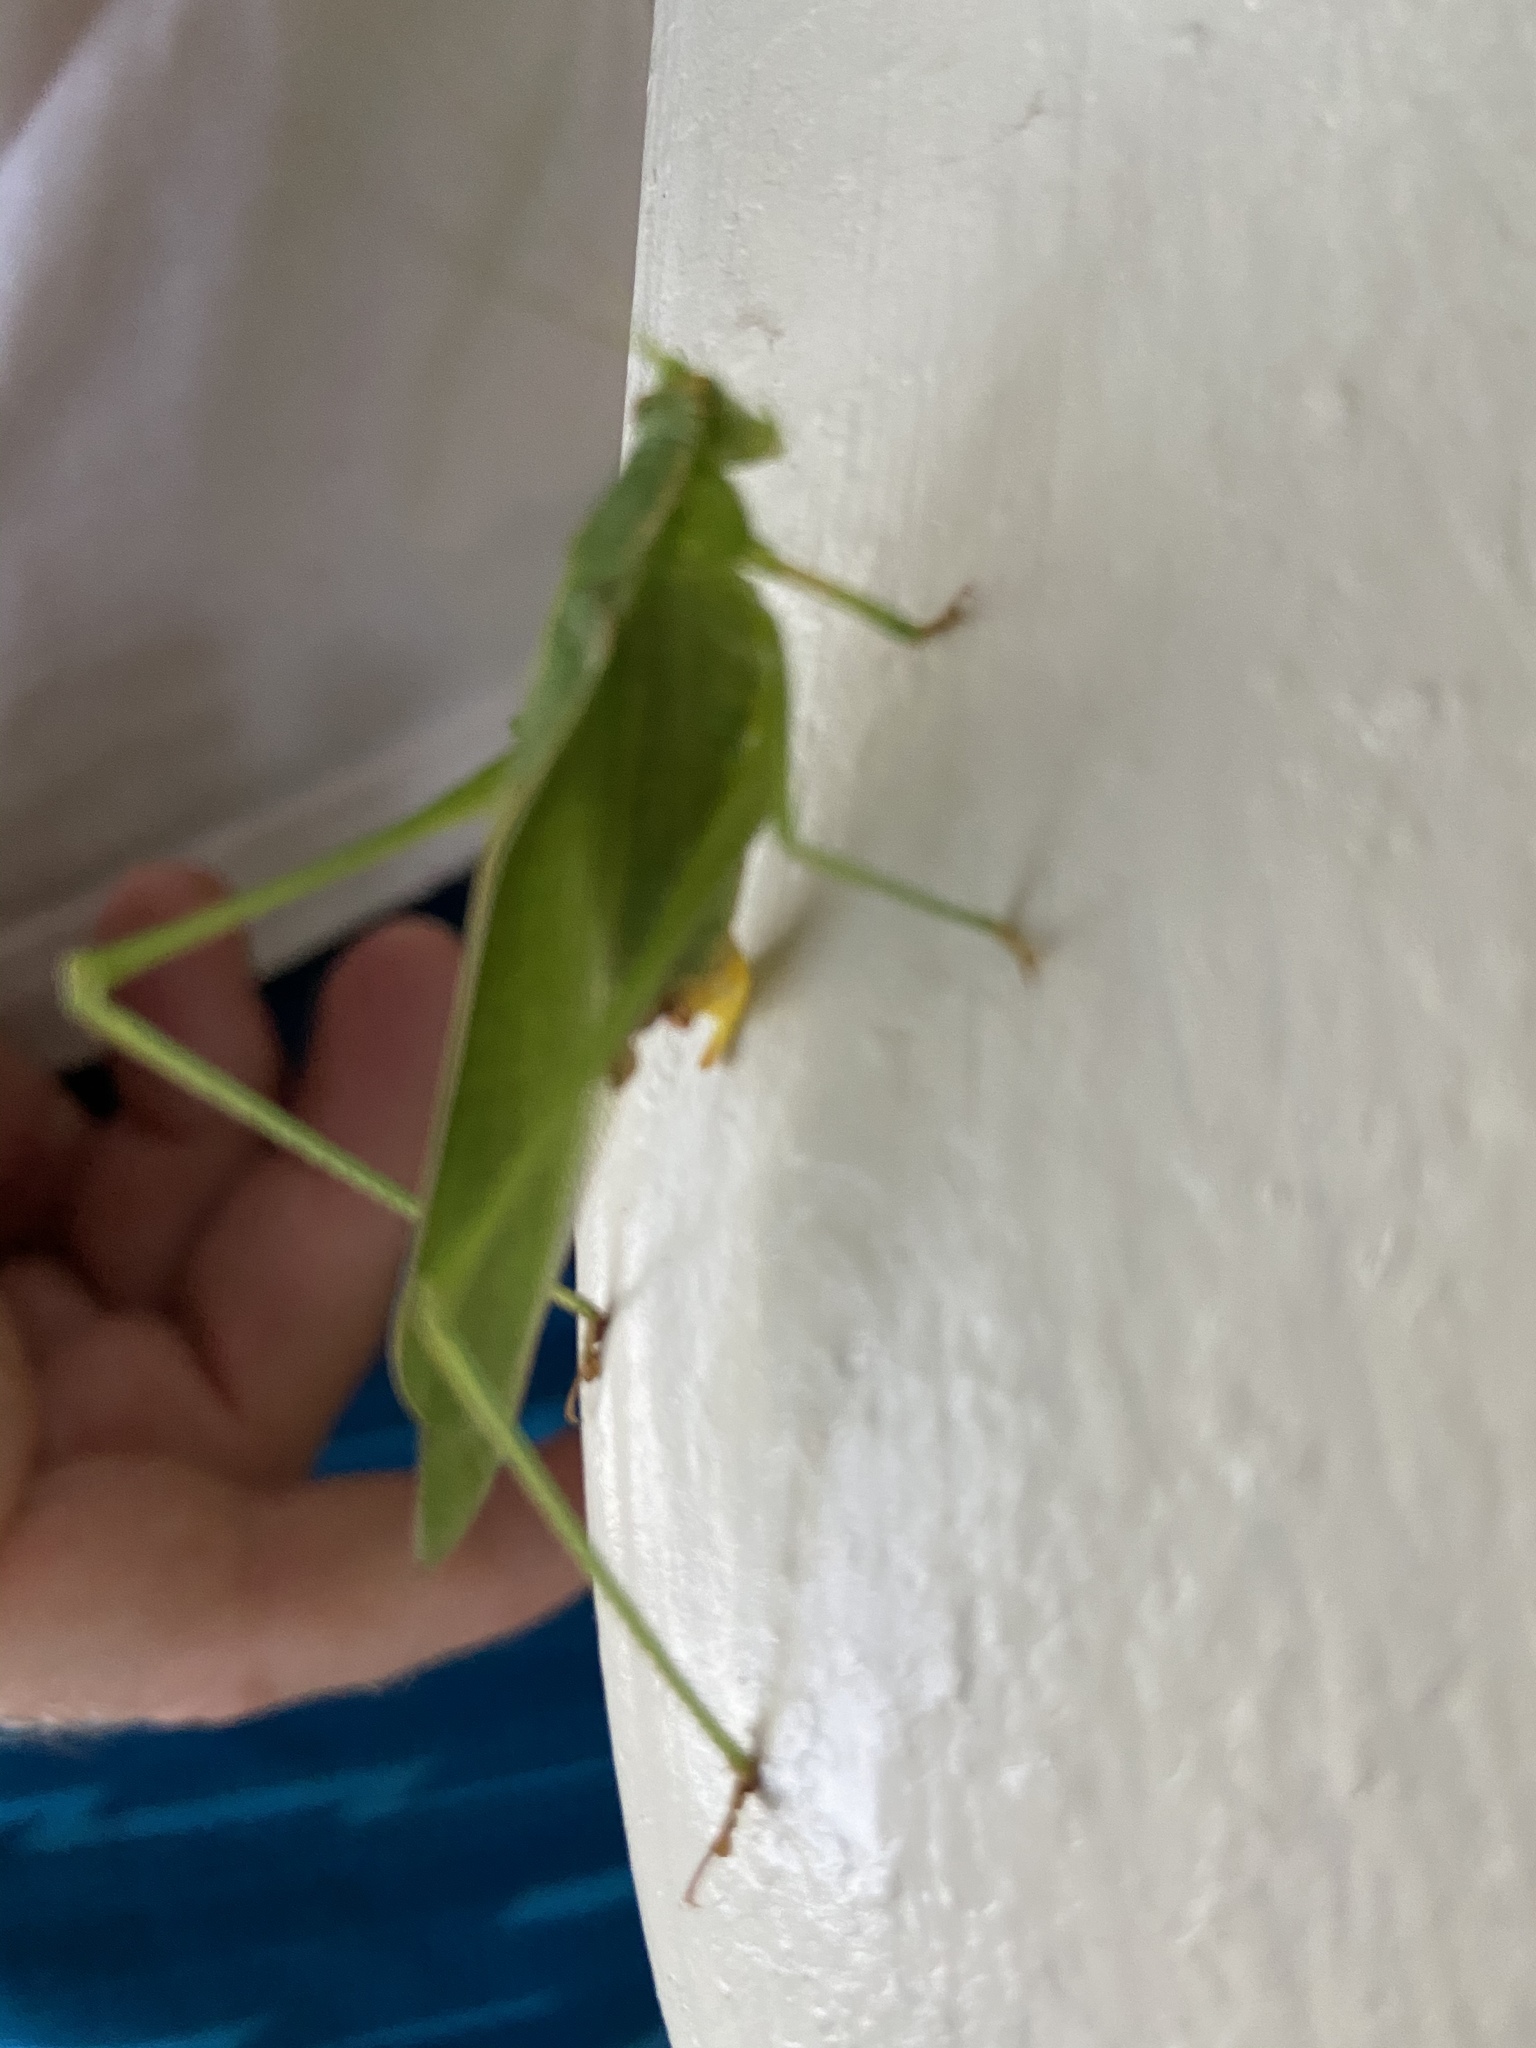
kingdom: Animalia
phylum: Arthropoda
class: Insecta
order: Orthoptera
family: Tettigoniidae
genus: Scudderia
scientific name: Scudderia furcata
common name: Fork-tailed bush katydid
